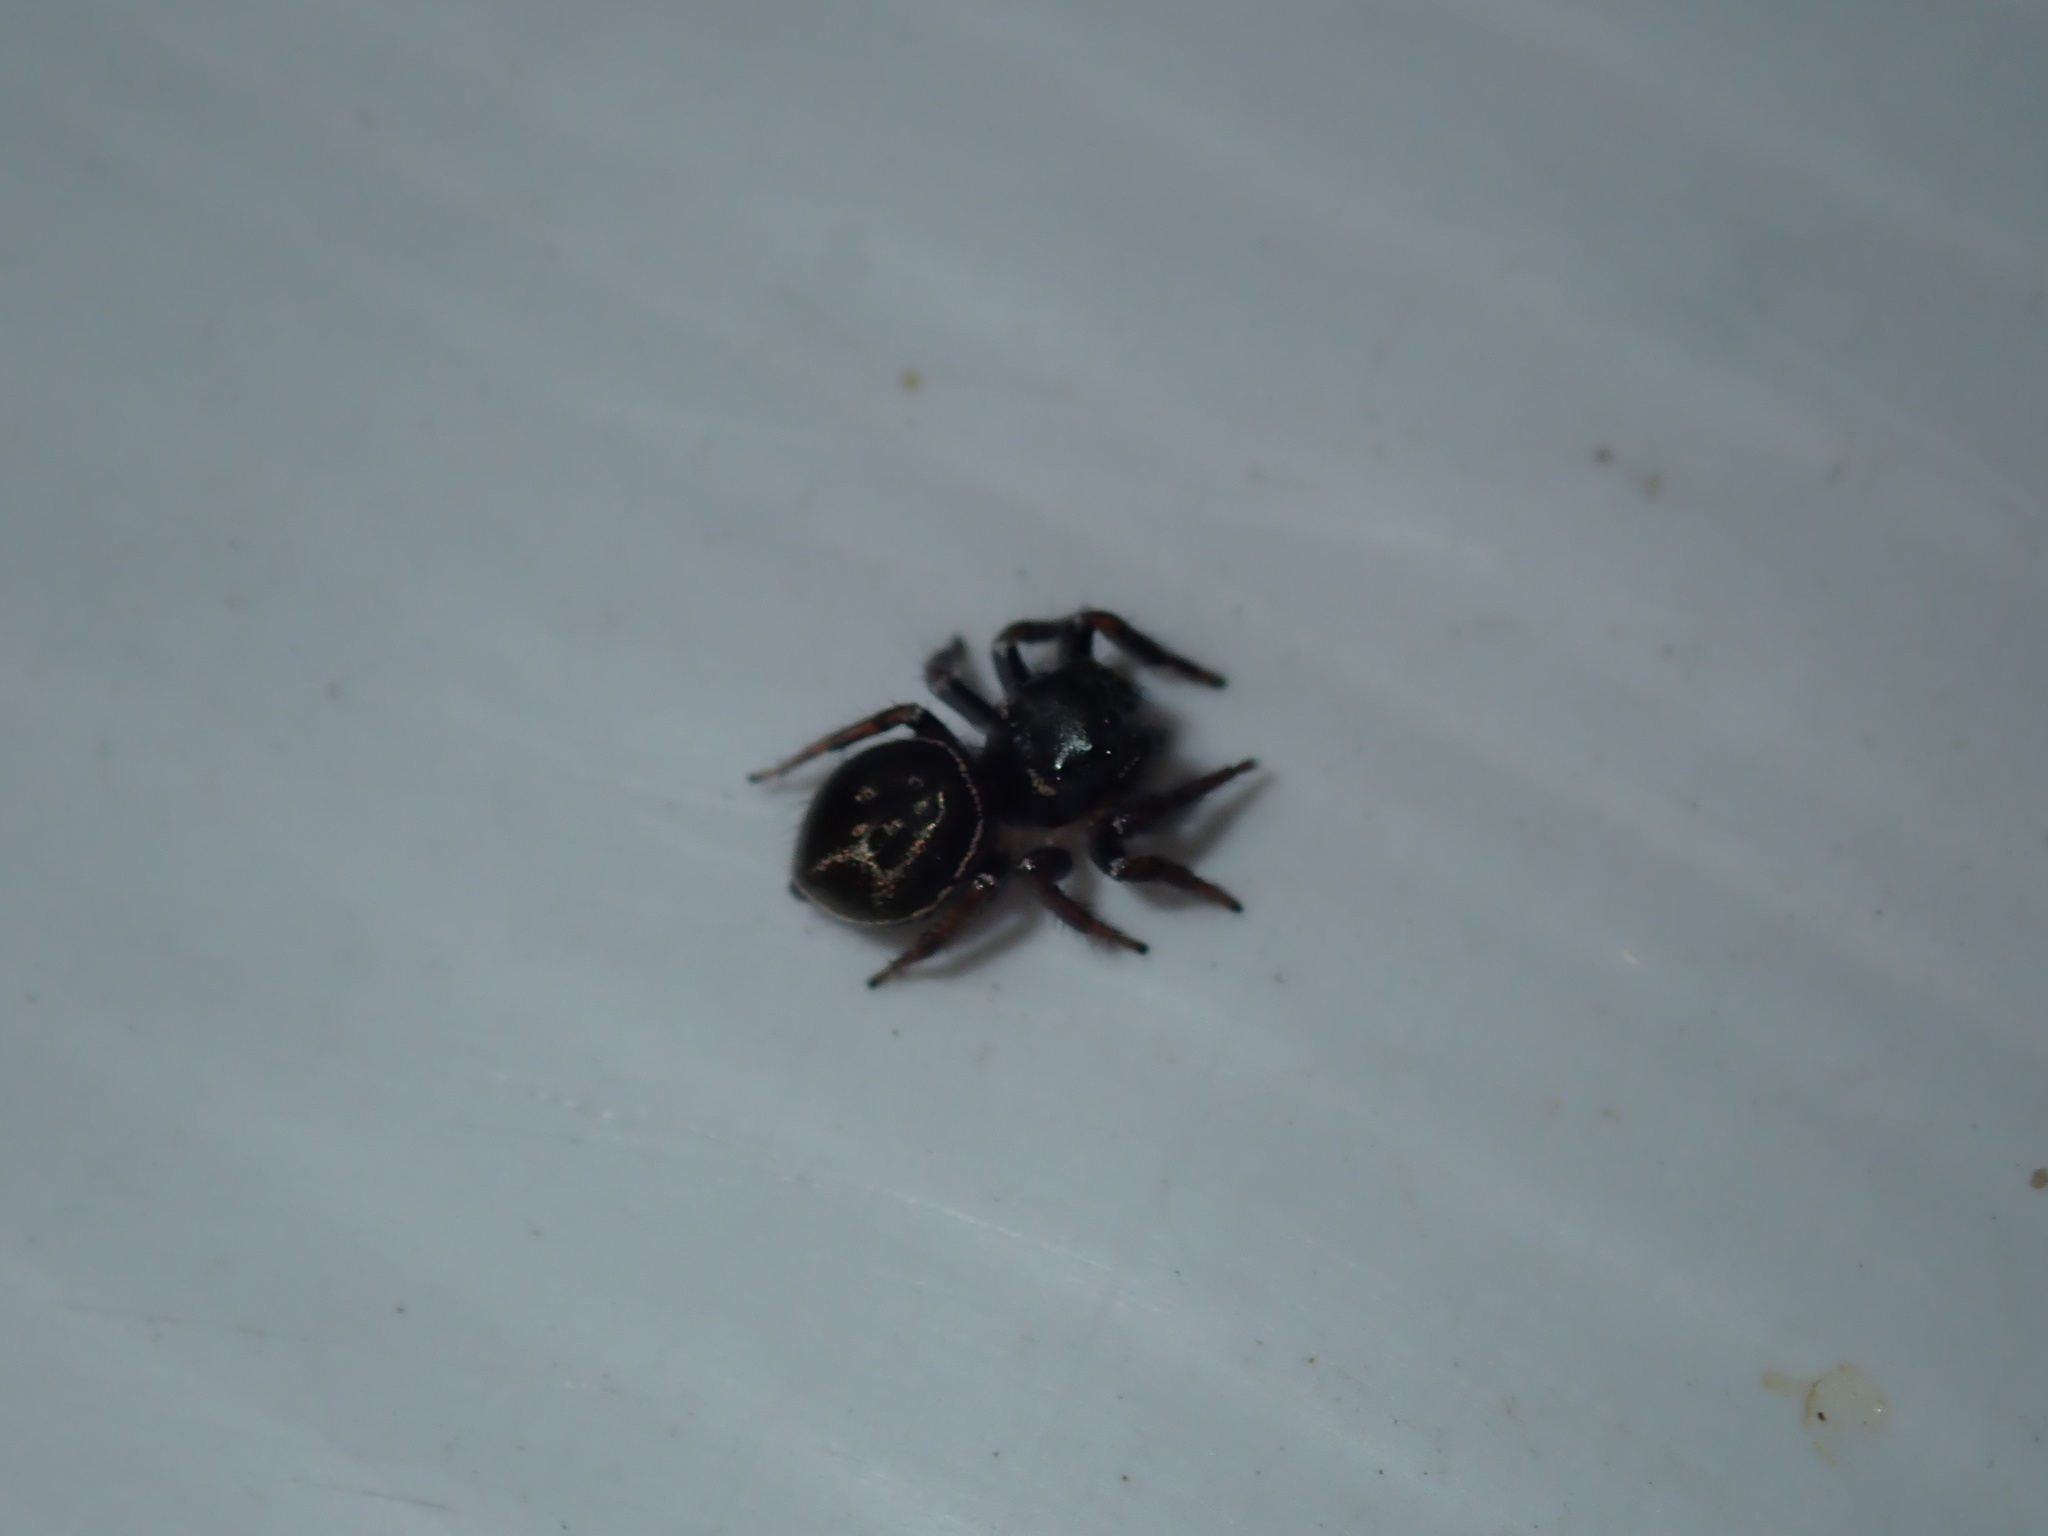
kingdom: Animalia
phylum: Arthropoda
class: Arachnida
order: Araneae
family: Salticidae
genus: Zenodorus
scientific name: Zenodorus orbiculatus
